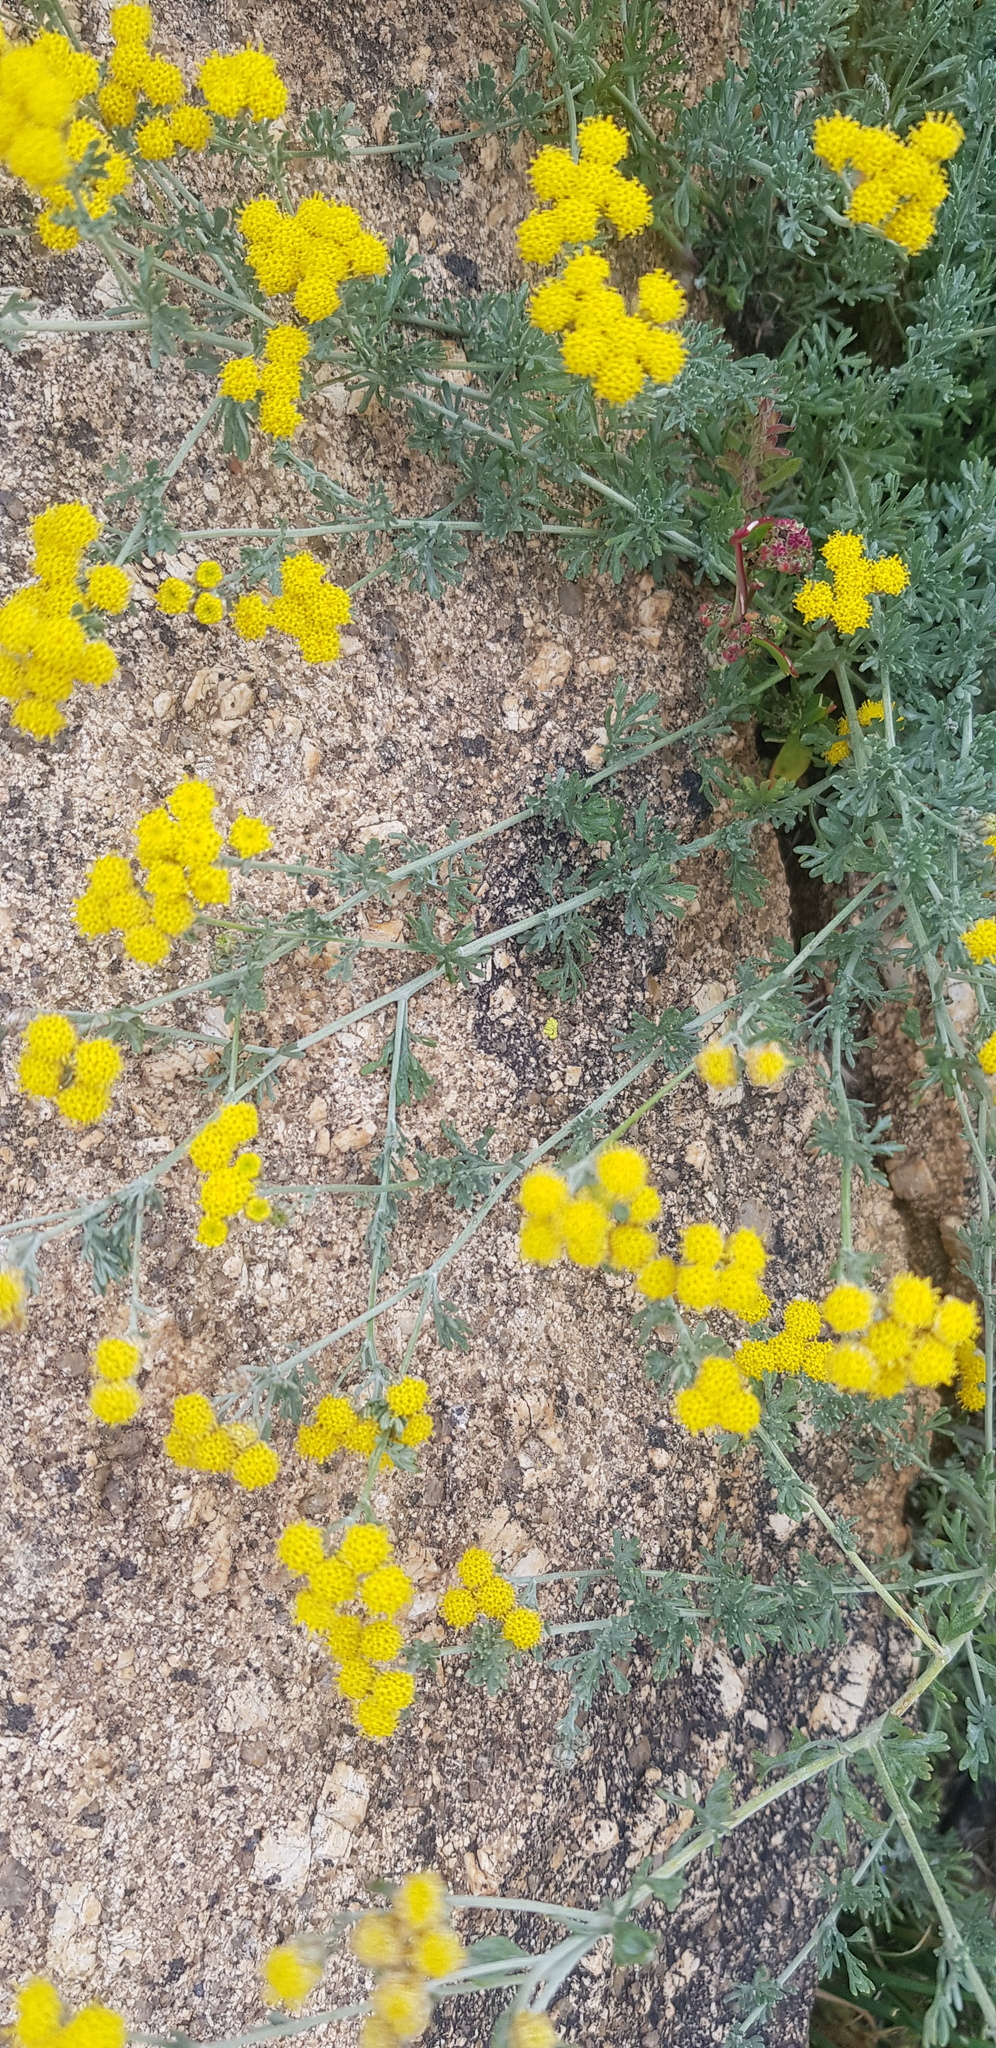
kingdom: Plantae
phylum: Tracheophyta
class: Magnoliopsida
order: Asterales
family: Asteraceae
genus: Ajania
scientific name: Ajania achilleoides
